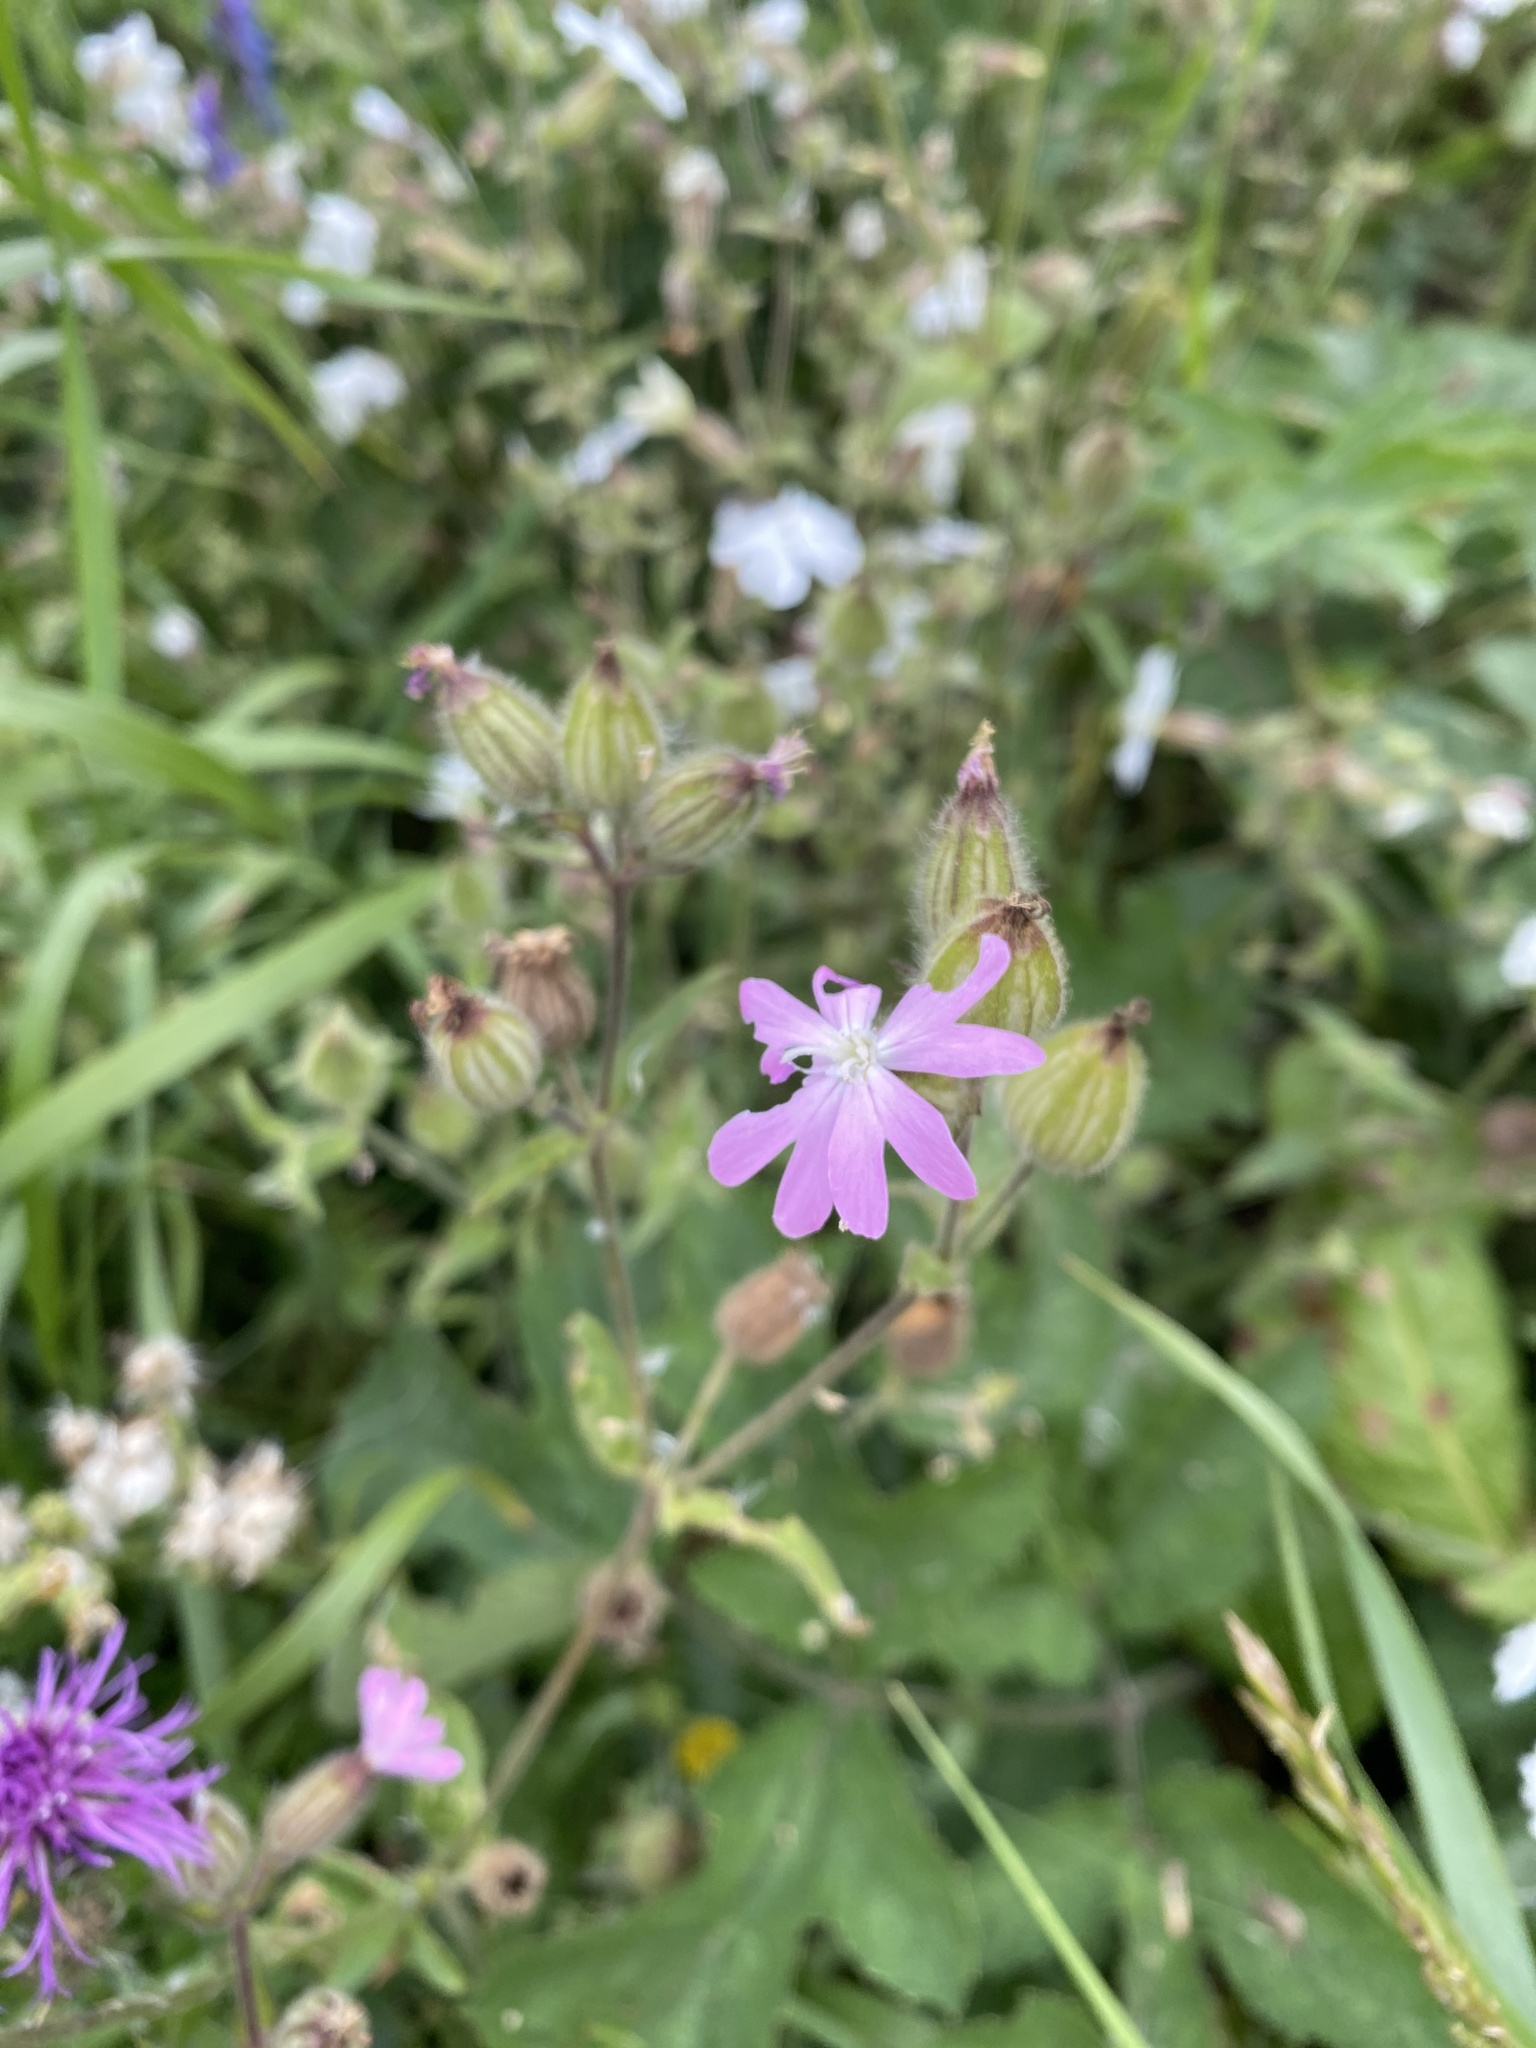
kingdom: Plantae
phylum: Tracheophyta
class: Magnoliopsida
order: Caryophyllales
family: Caryophyllaceae
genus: Silene
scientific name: Silene dioica
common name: Red campion
